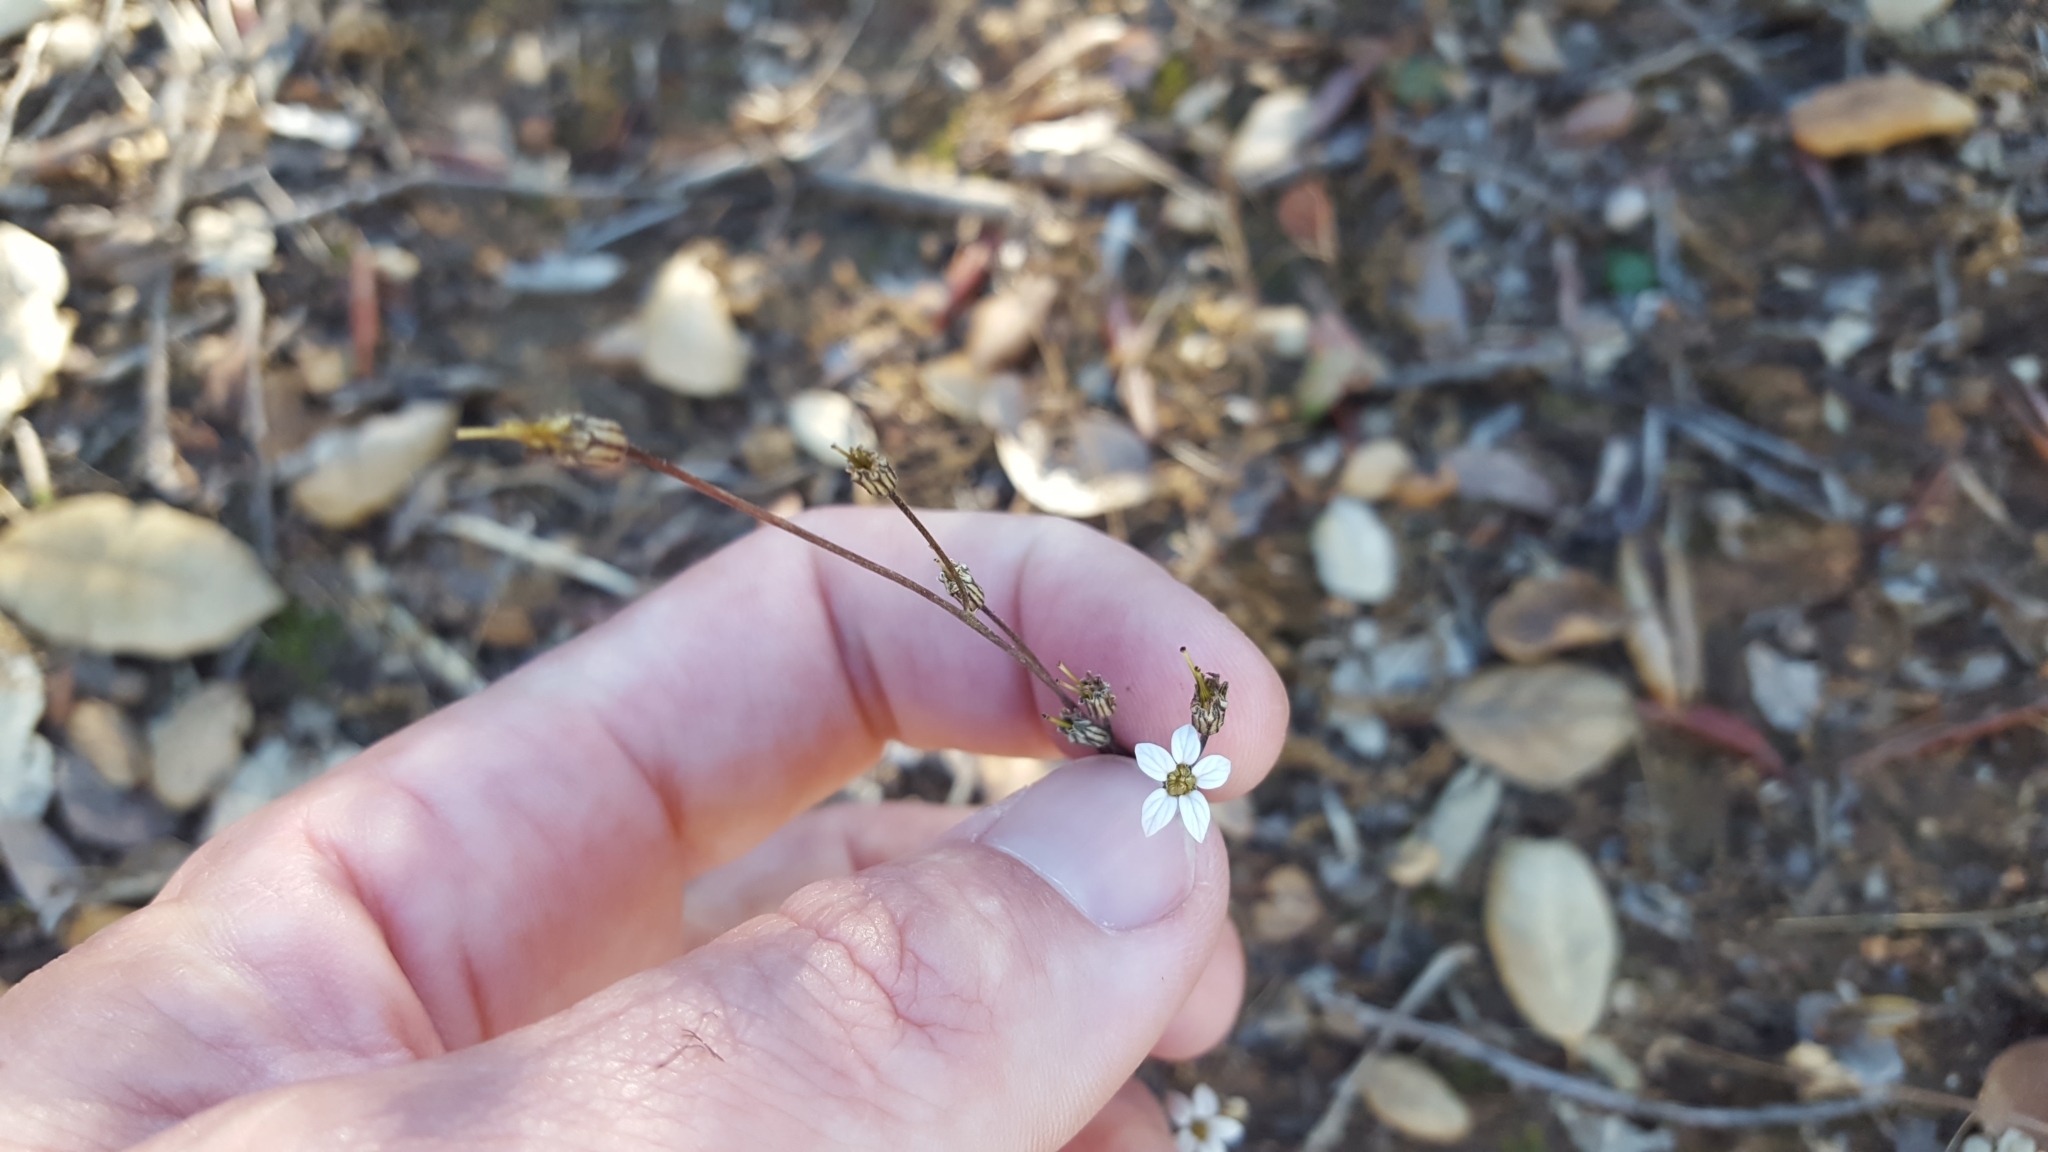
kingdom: Plantae
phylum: Tracheophyta
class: Magnoliopsida
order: Saxifragales
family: Saxifragaceae
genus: Jepsonia
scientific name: Jepsonia parryi
